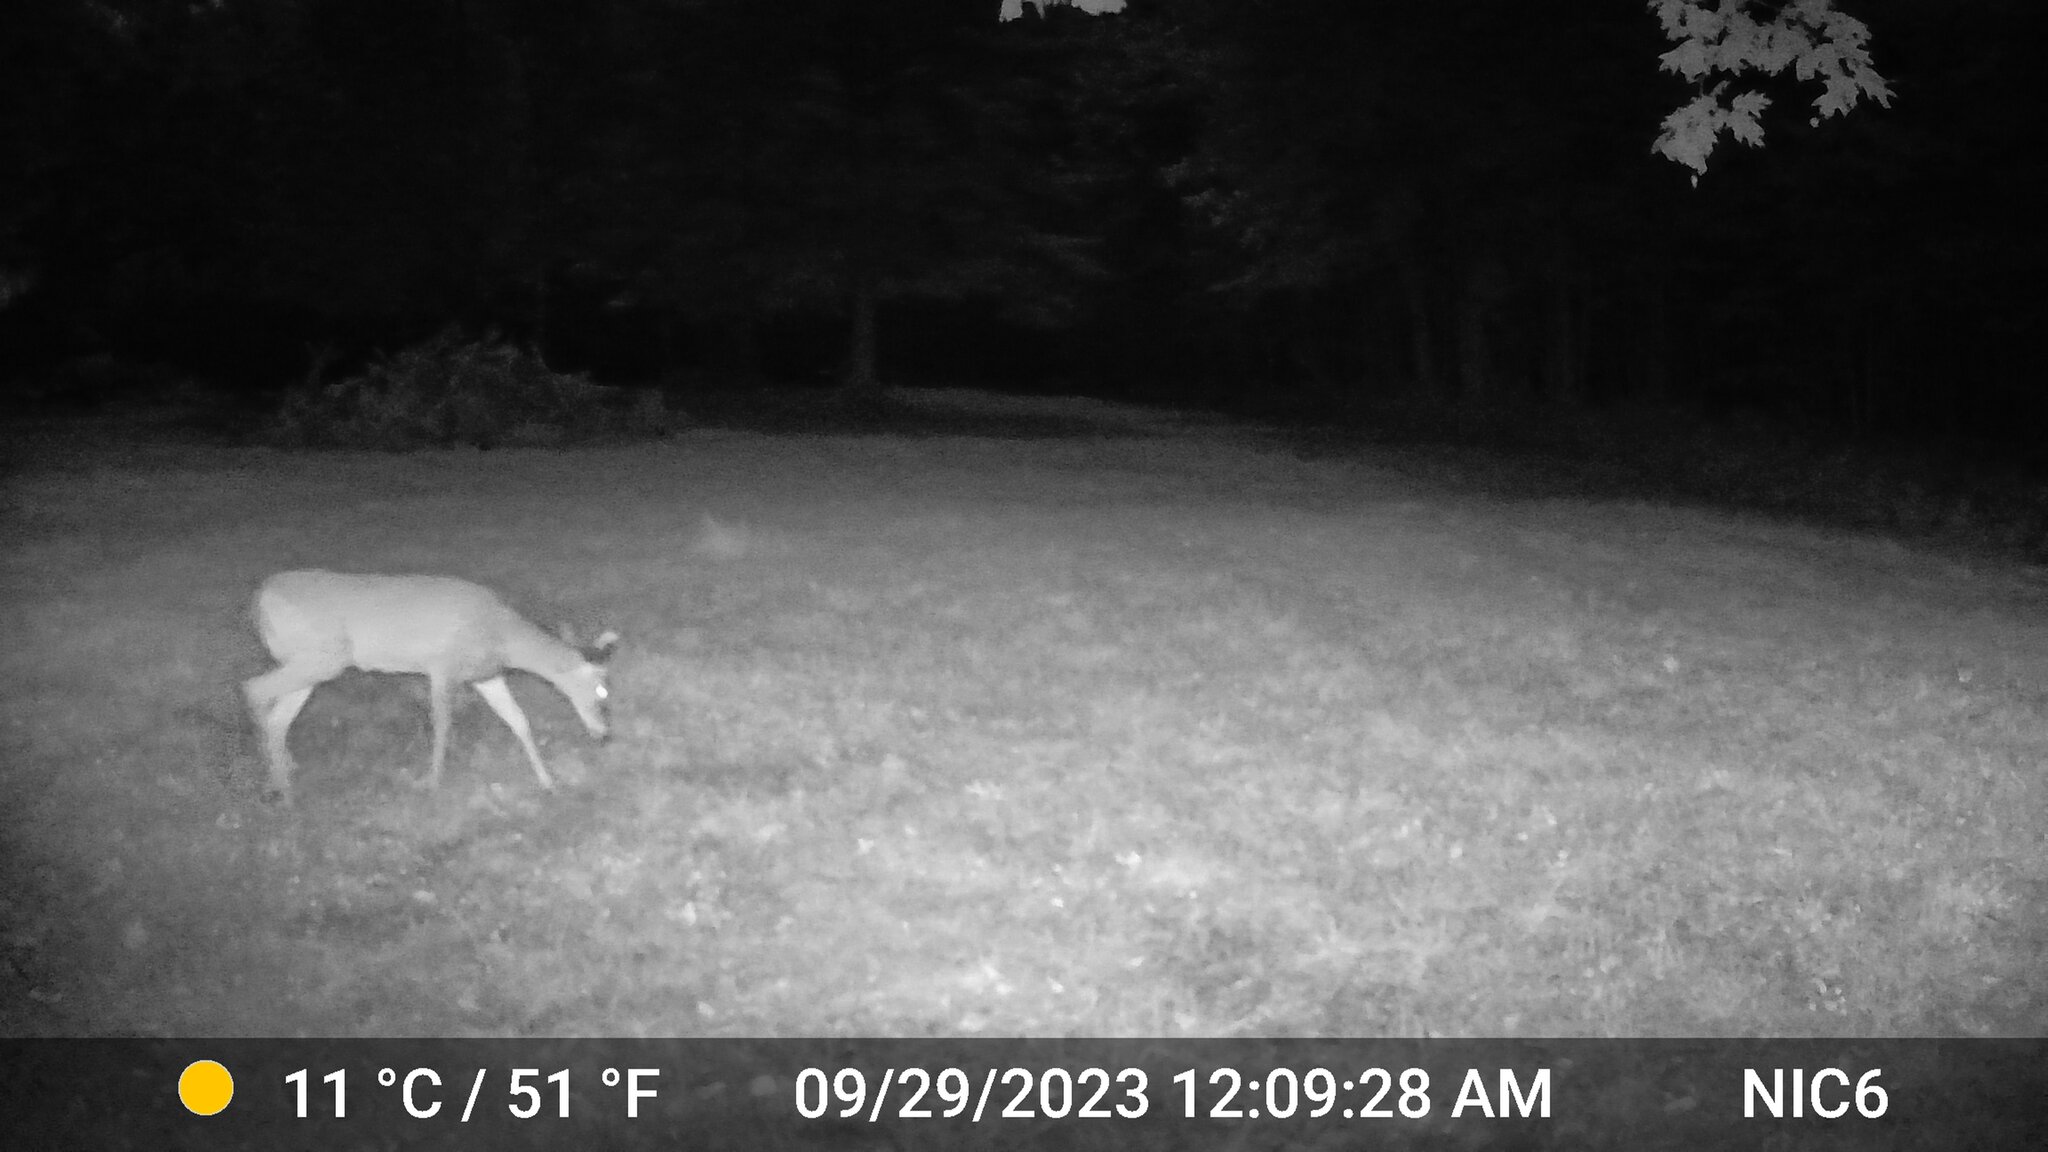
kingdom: Animalia
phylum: Chordata
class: Mammalia
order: Artiodactyla
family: Cervidae
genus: Odocoileus
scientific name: Odocoileus virginianus
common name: White-tailed deer
